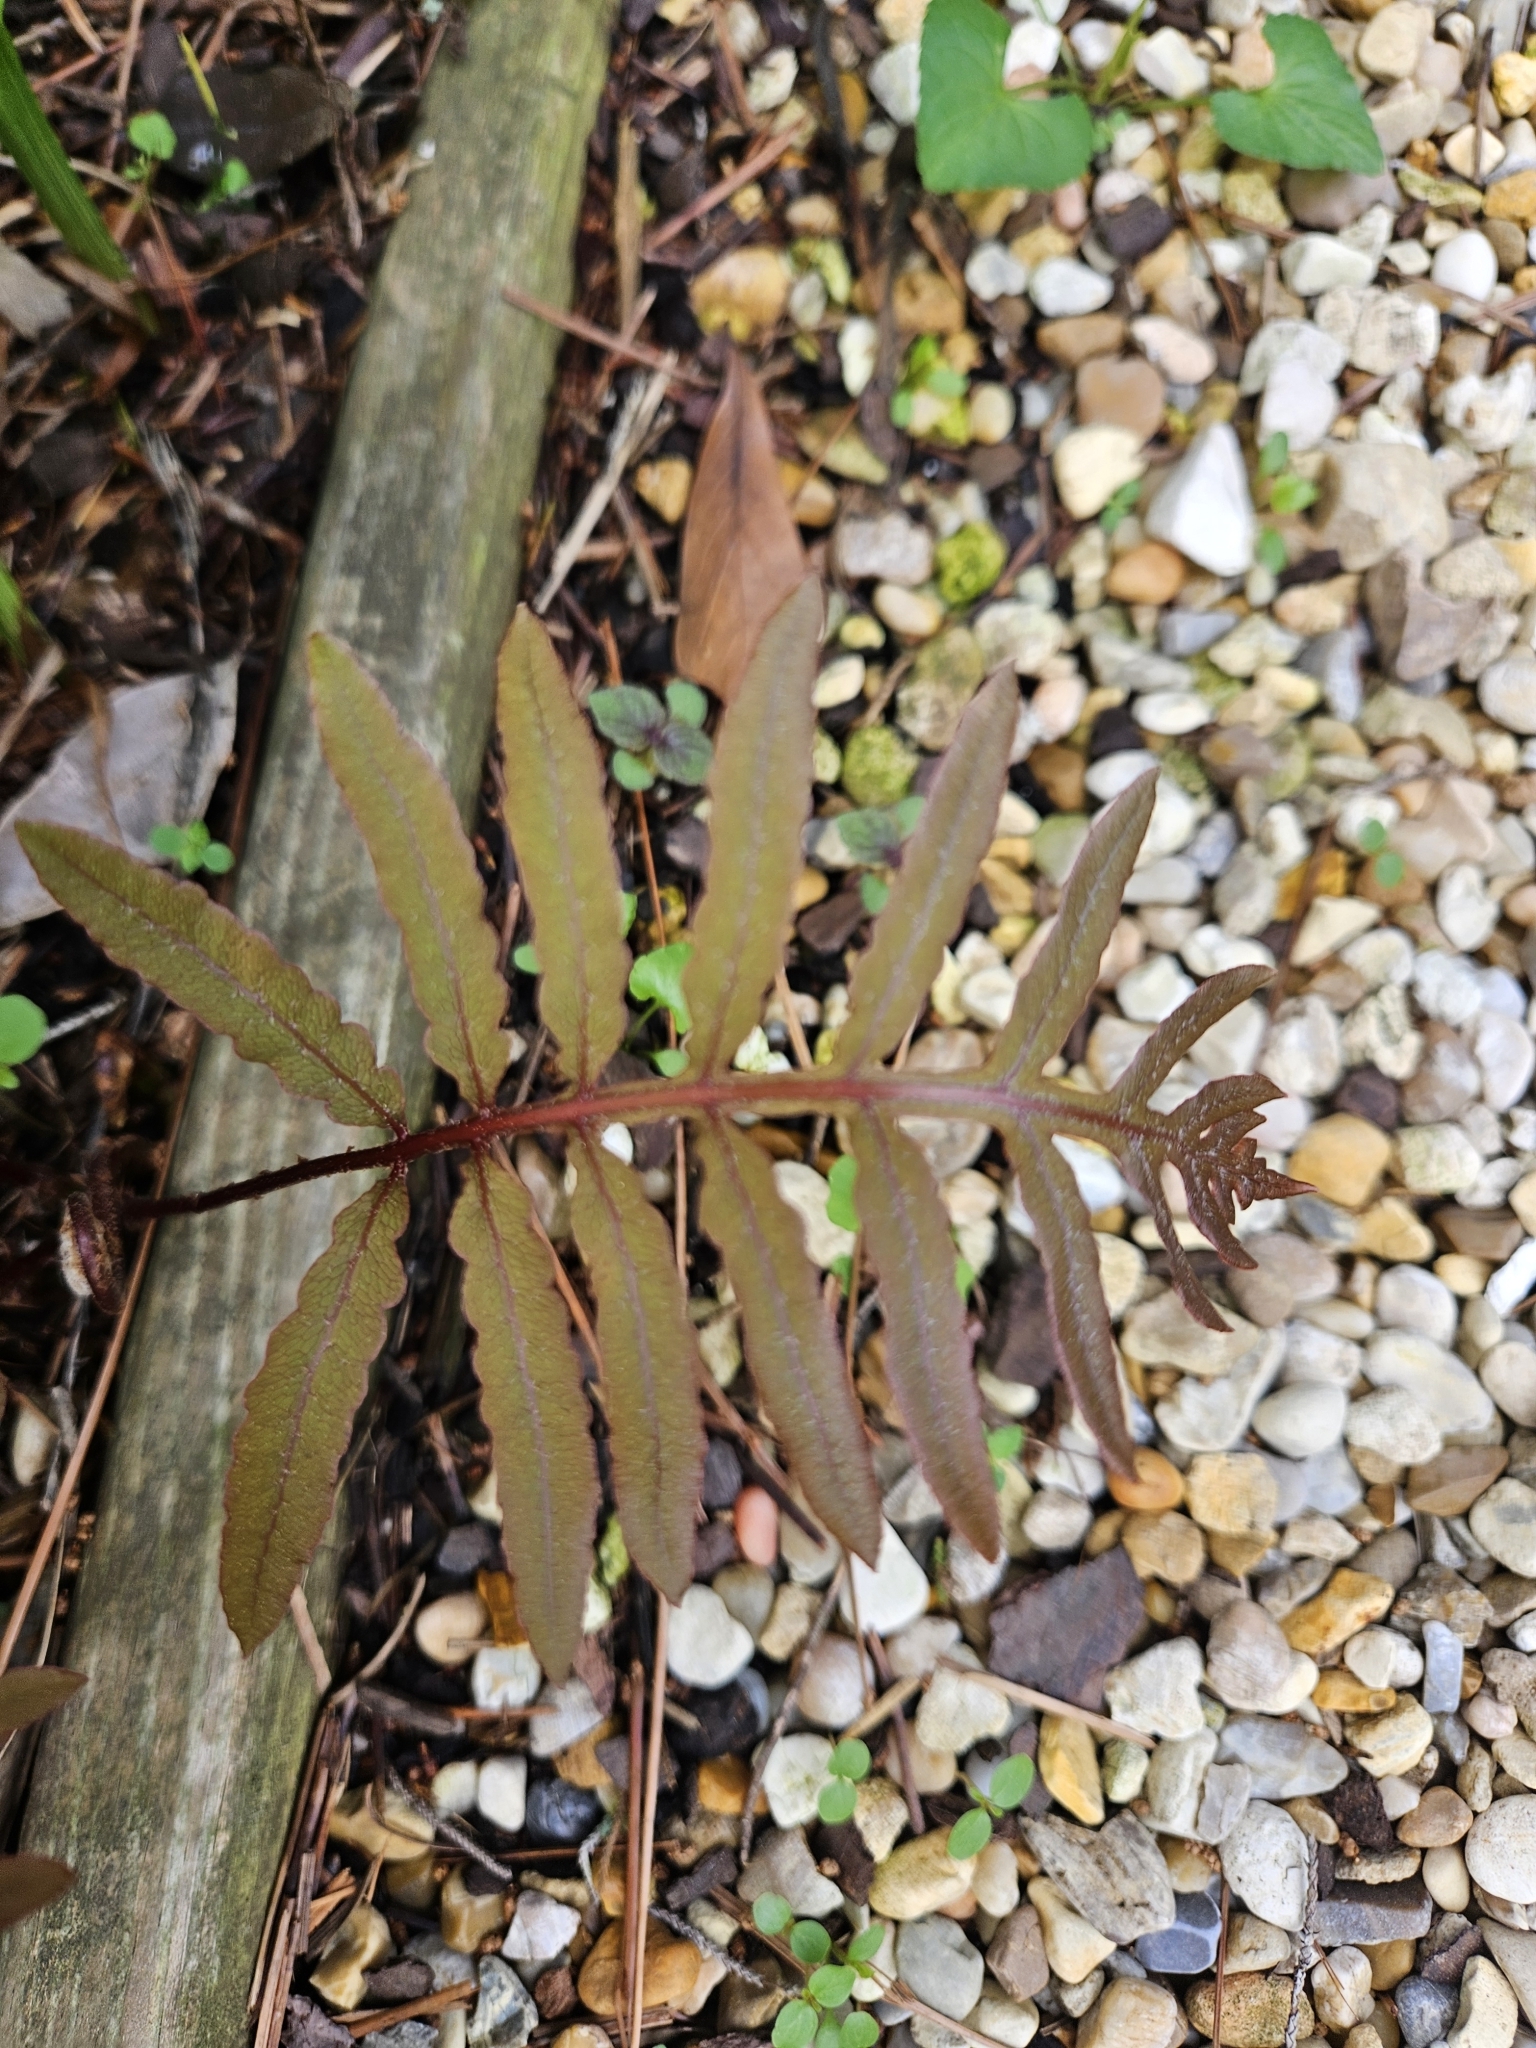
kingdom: Plantae
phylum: Tracheophyta
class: Polypodiopsida
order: Polypodiales
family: Onocleaceae
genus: Onoclea
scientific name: Onoclea sensibilis
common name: Sensitive fern
